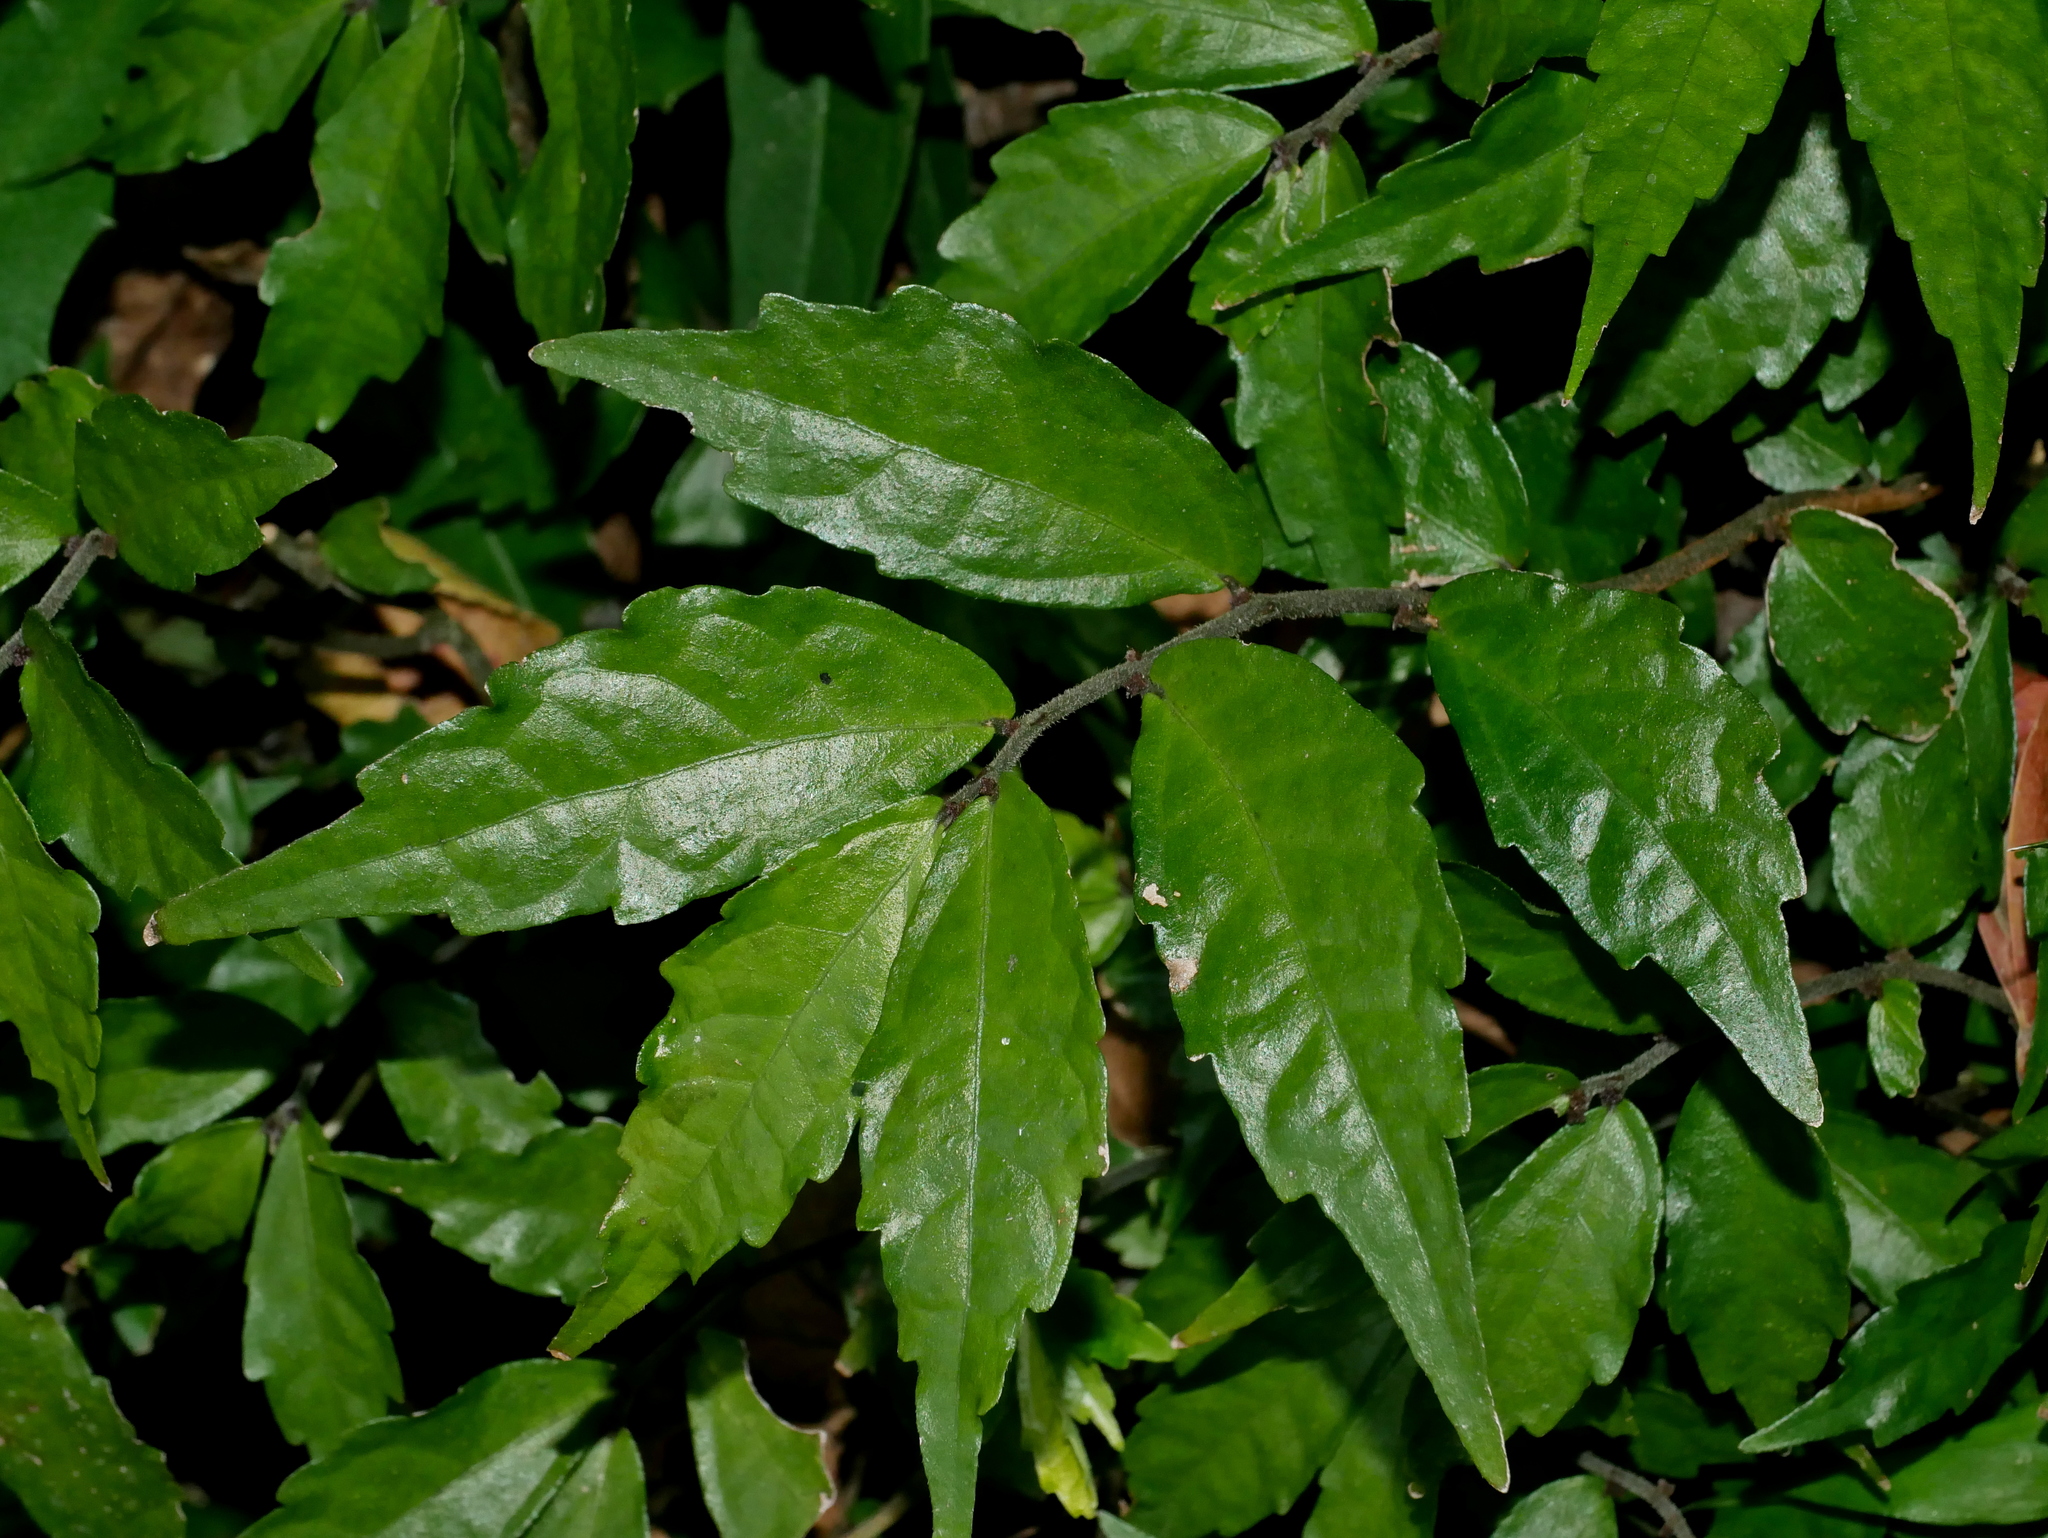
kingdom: Plantae
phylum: Tracheophyta
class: Magnoliopsida
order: Rosales
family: Urticaceae
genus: Elatostema
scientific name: Elatostema scabrum
